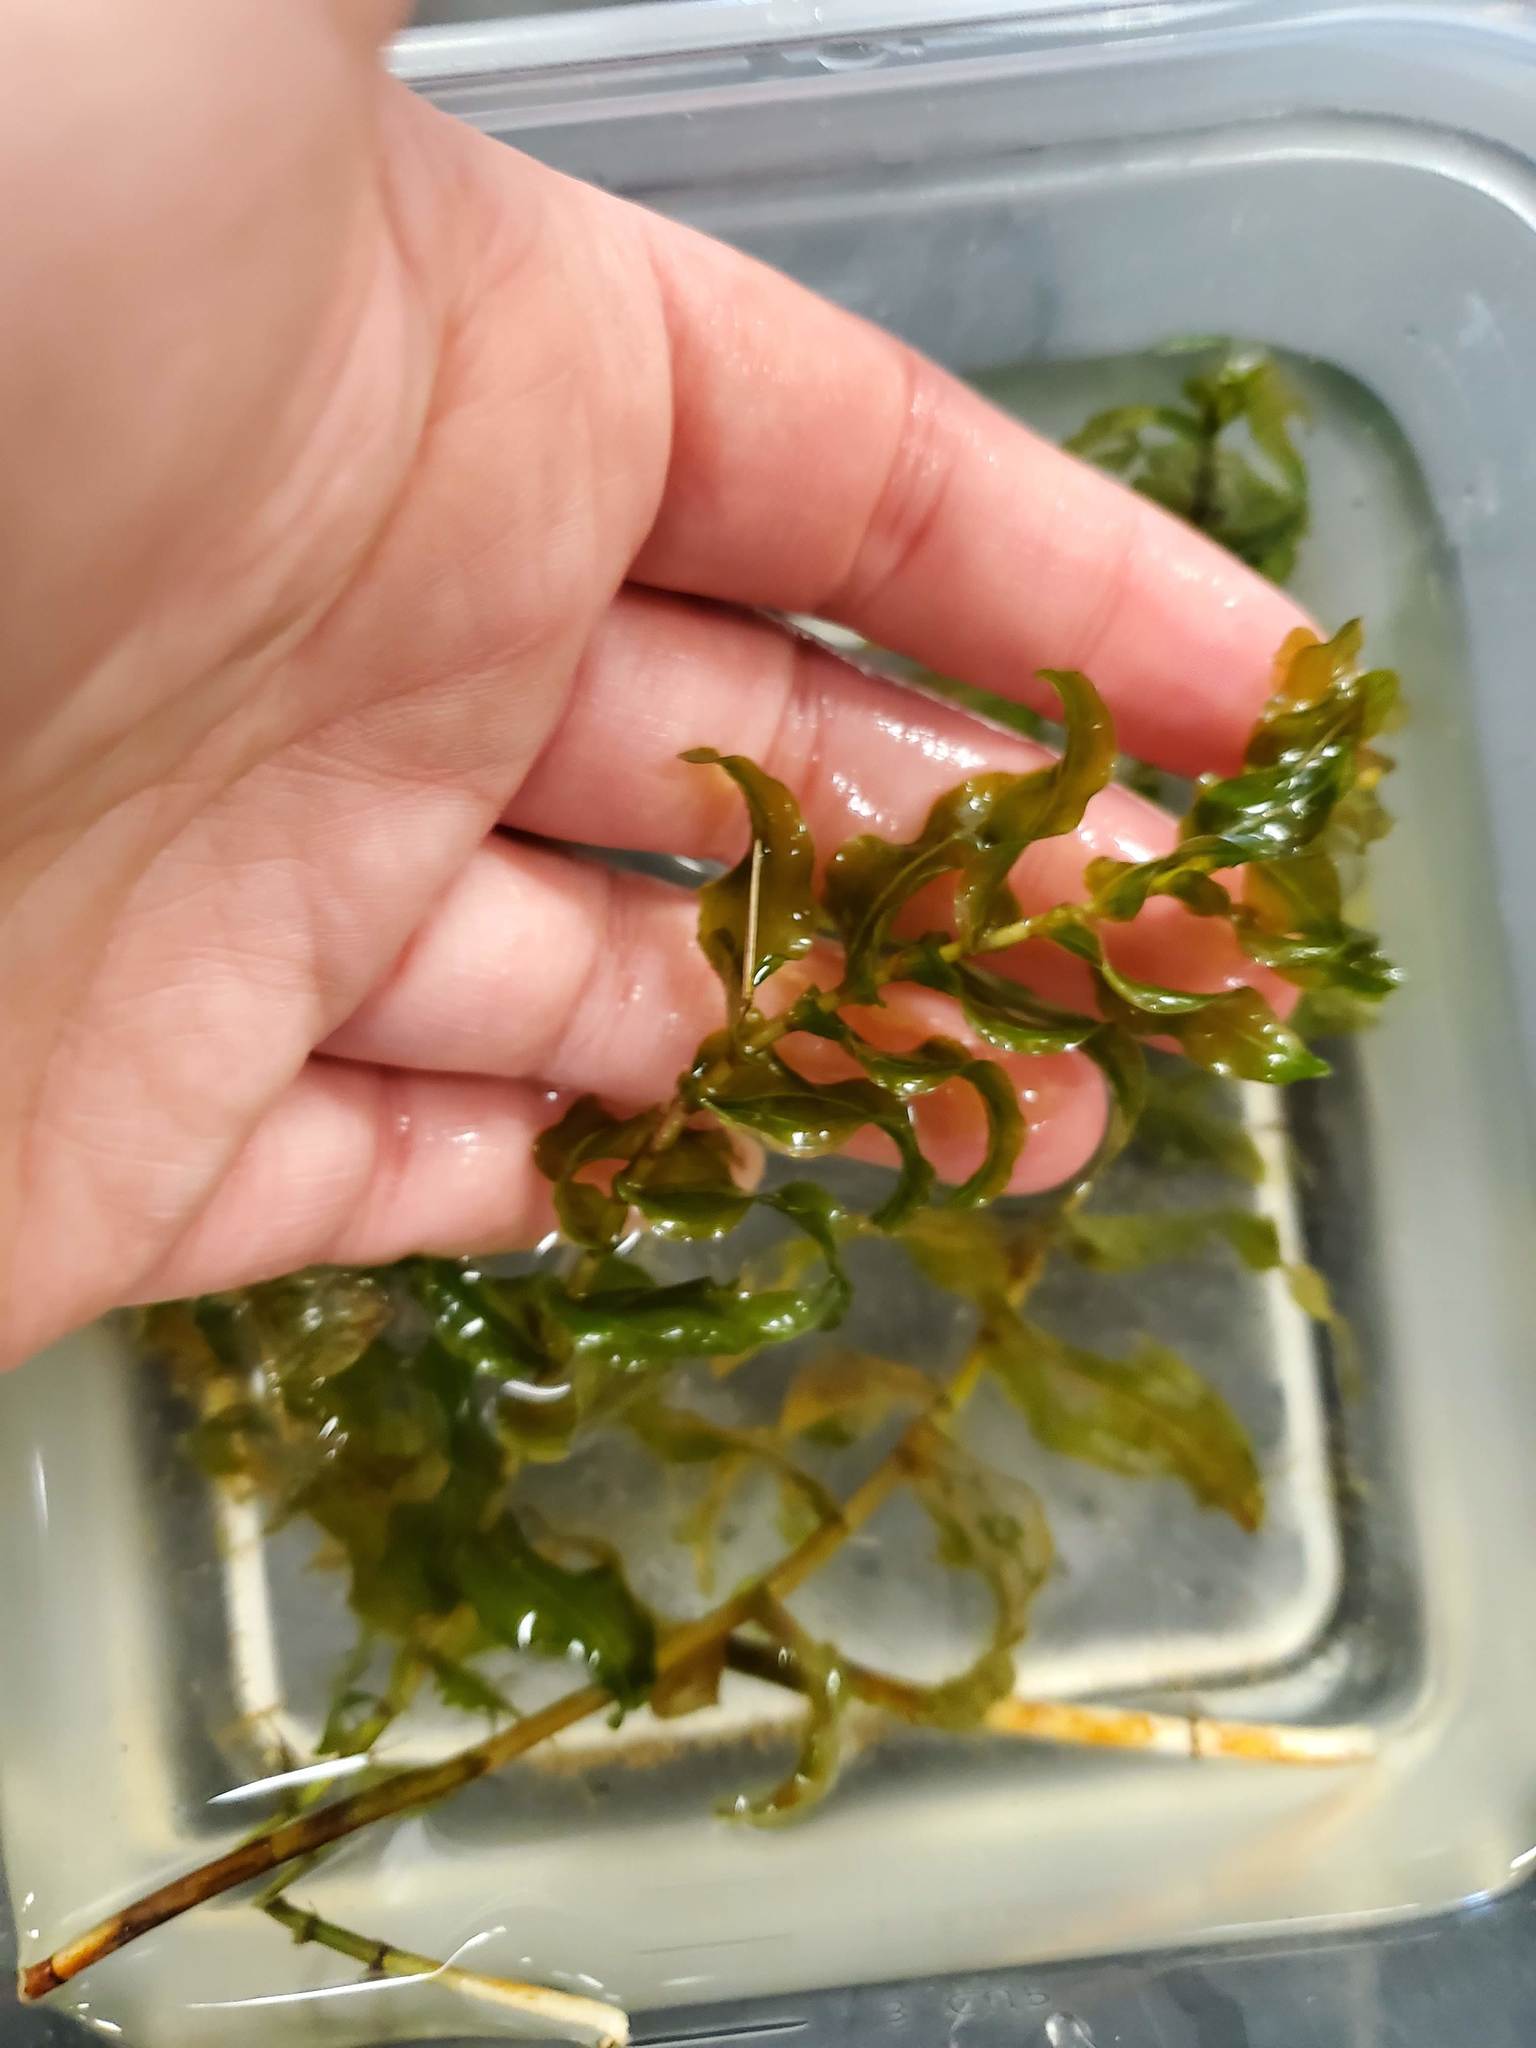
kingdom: Plantae
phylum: Tracheophyta
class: Liliopsida
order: Alismatales
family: Potamogetonaceae
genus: Potamogeton
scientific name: Potamogeton richardsonii
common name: Richardson's pondweed
